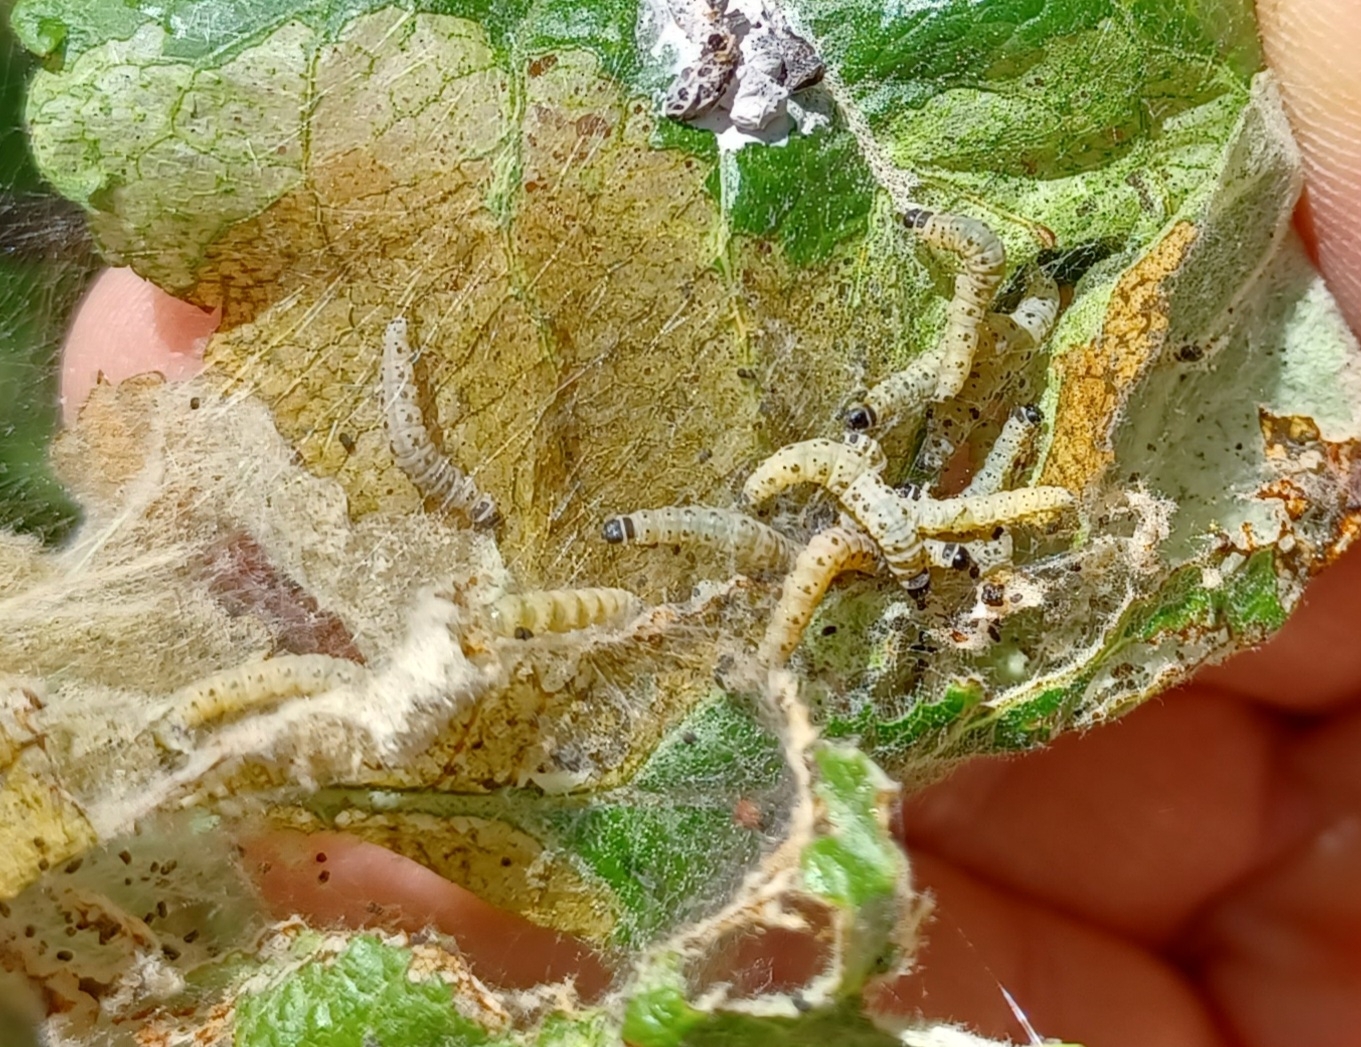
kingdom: Animalia
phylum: Arthropoda
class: Insecta
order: Lepidoptera
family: Yponomeutidae
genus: Yponomeuta
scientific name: Yponomeuta padella
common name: Orchard ermine
